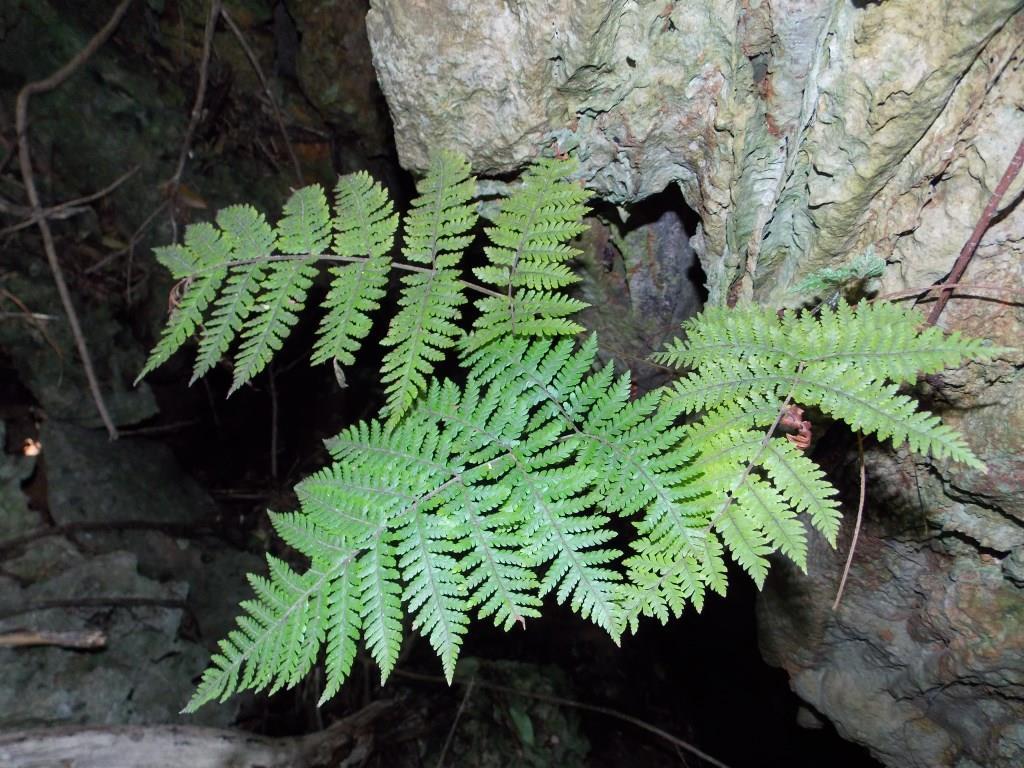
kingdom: Plantae
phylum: Tracheophyta
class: Polypodiopsida
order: Polypodiales
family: Dryopteridaceae
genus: Ctenitis
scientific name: Ctenitis sloanei
